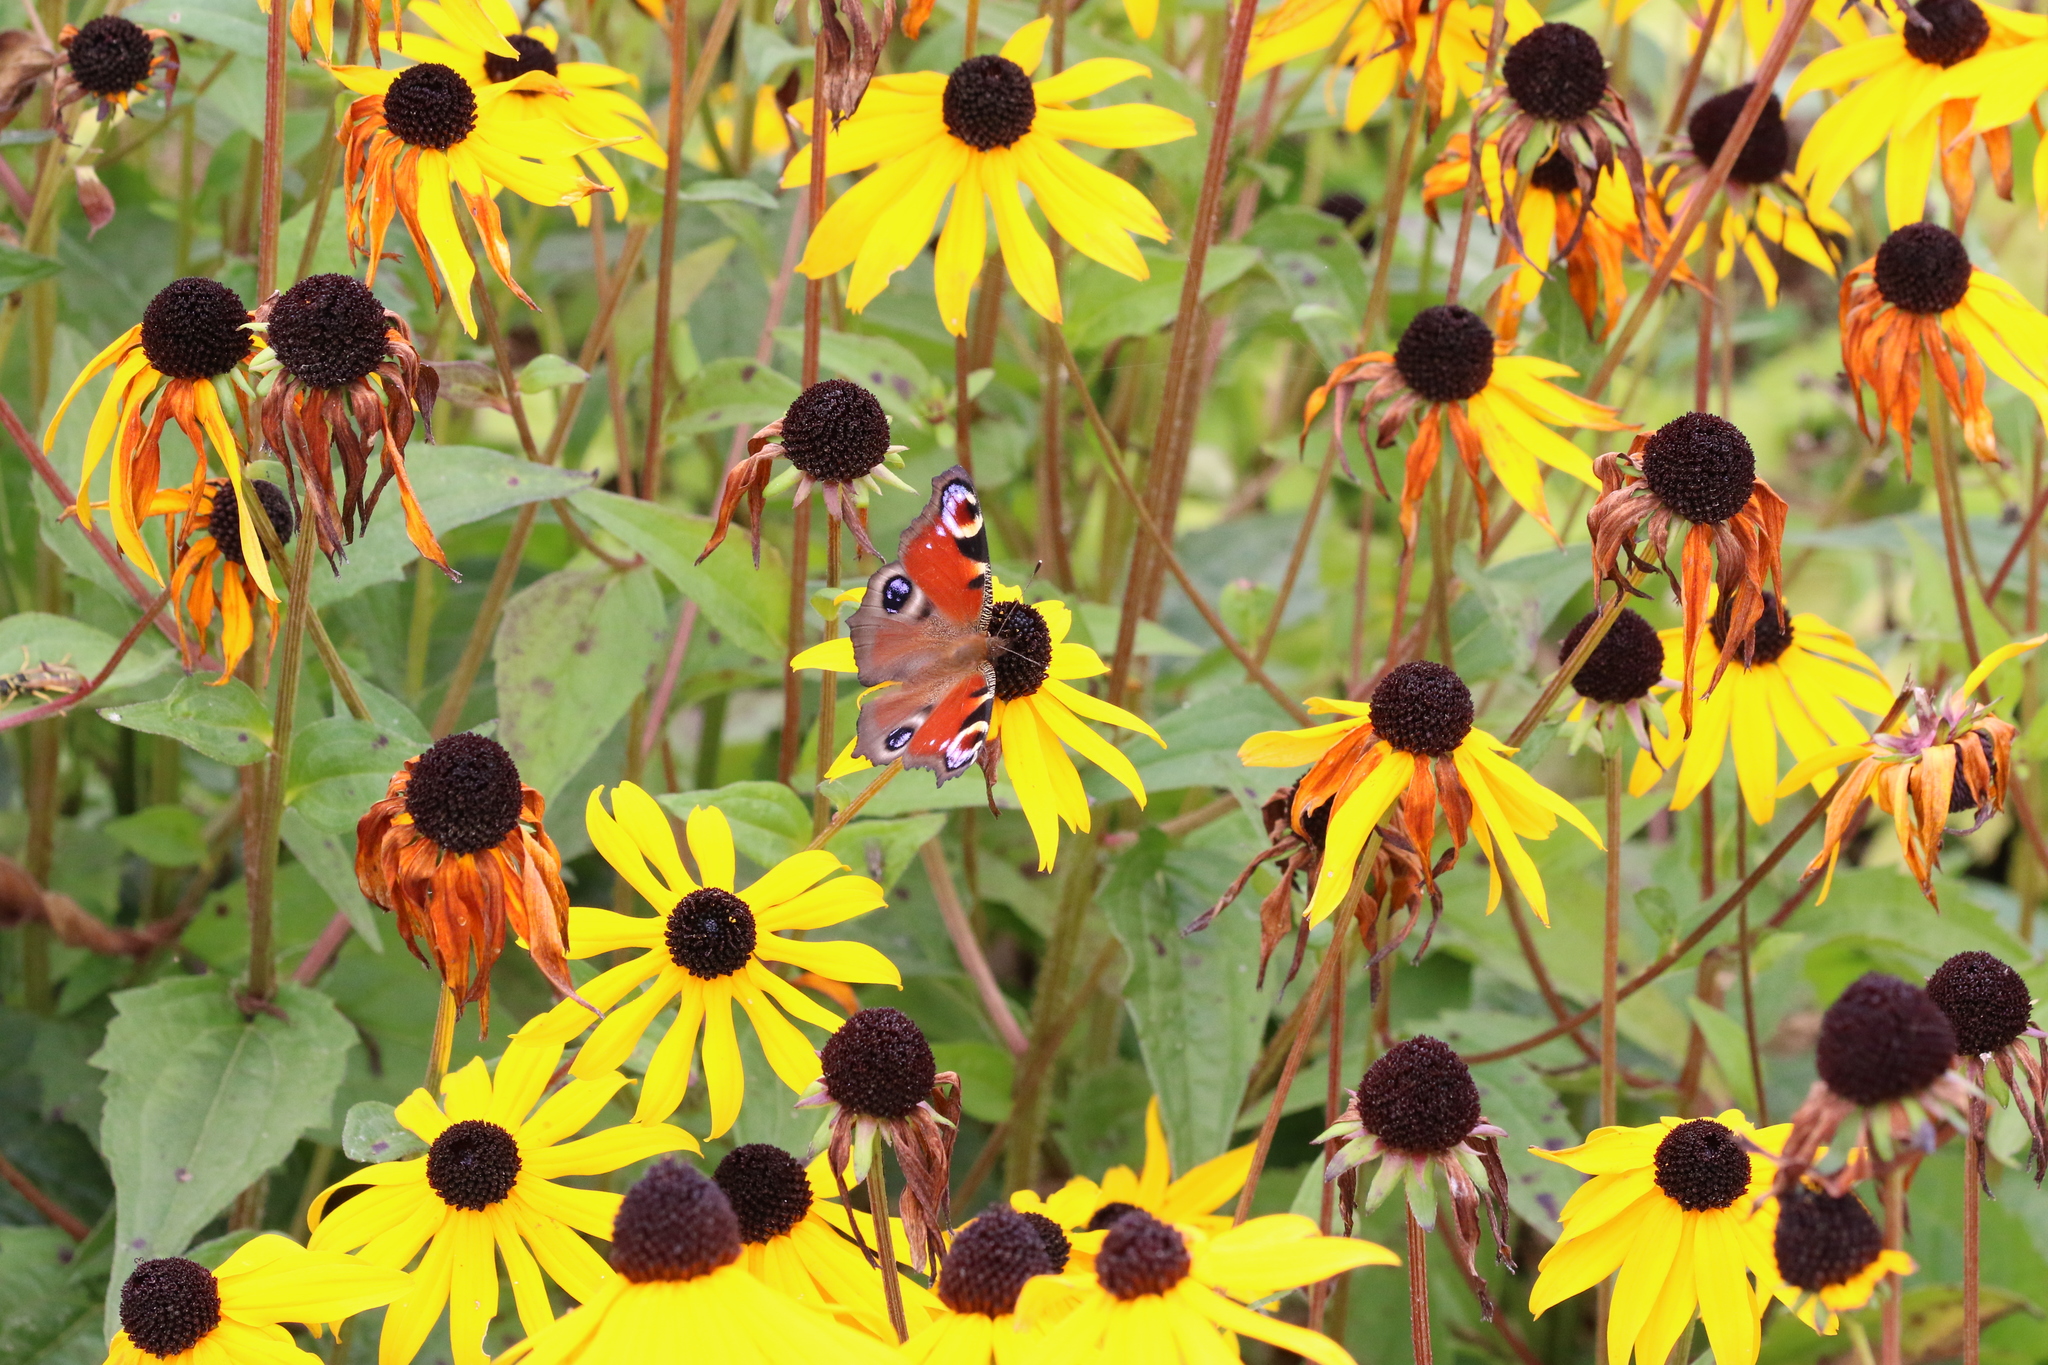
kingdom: Animalia
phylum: Arthropoda
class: Insecta
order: Lepidoptera
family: Nymphalidae
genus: Aglais
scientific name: Aglais io
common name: Peacock
